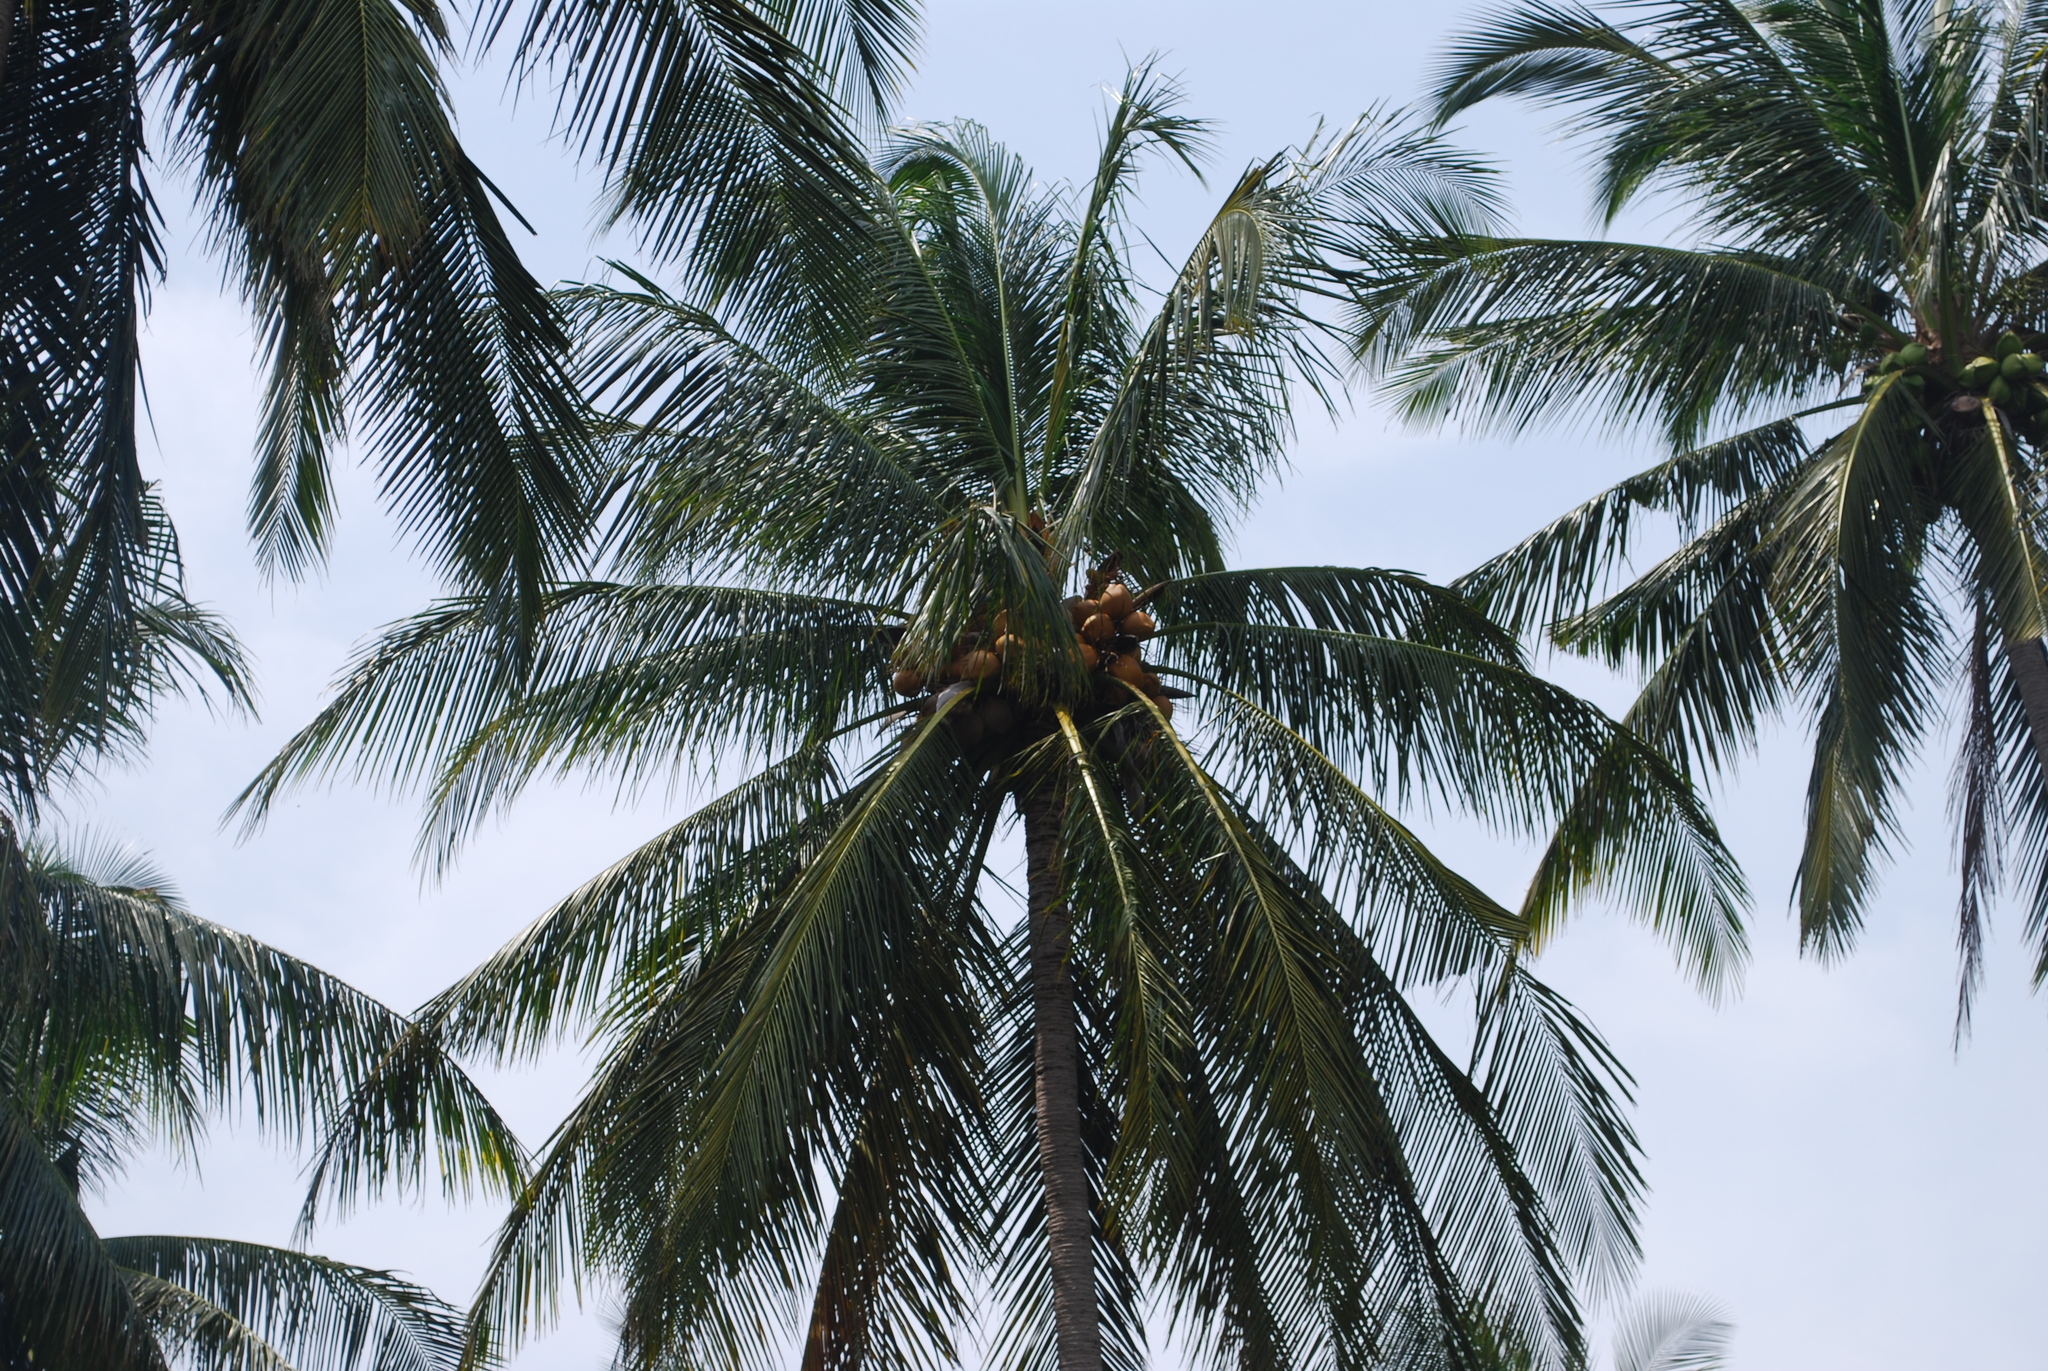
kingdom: Plantae
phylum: Tracheophyta
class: Liliopsida
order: Arecales
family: Arecaceae
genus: Cocos
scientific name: Cocos nucifera
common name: Coconut palm
